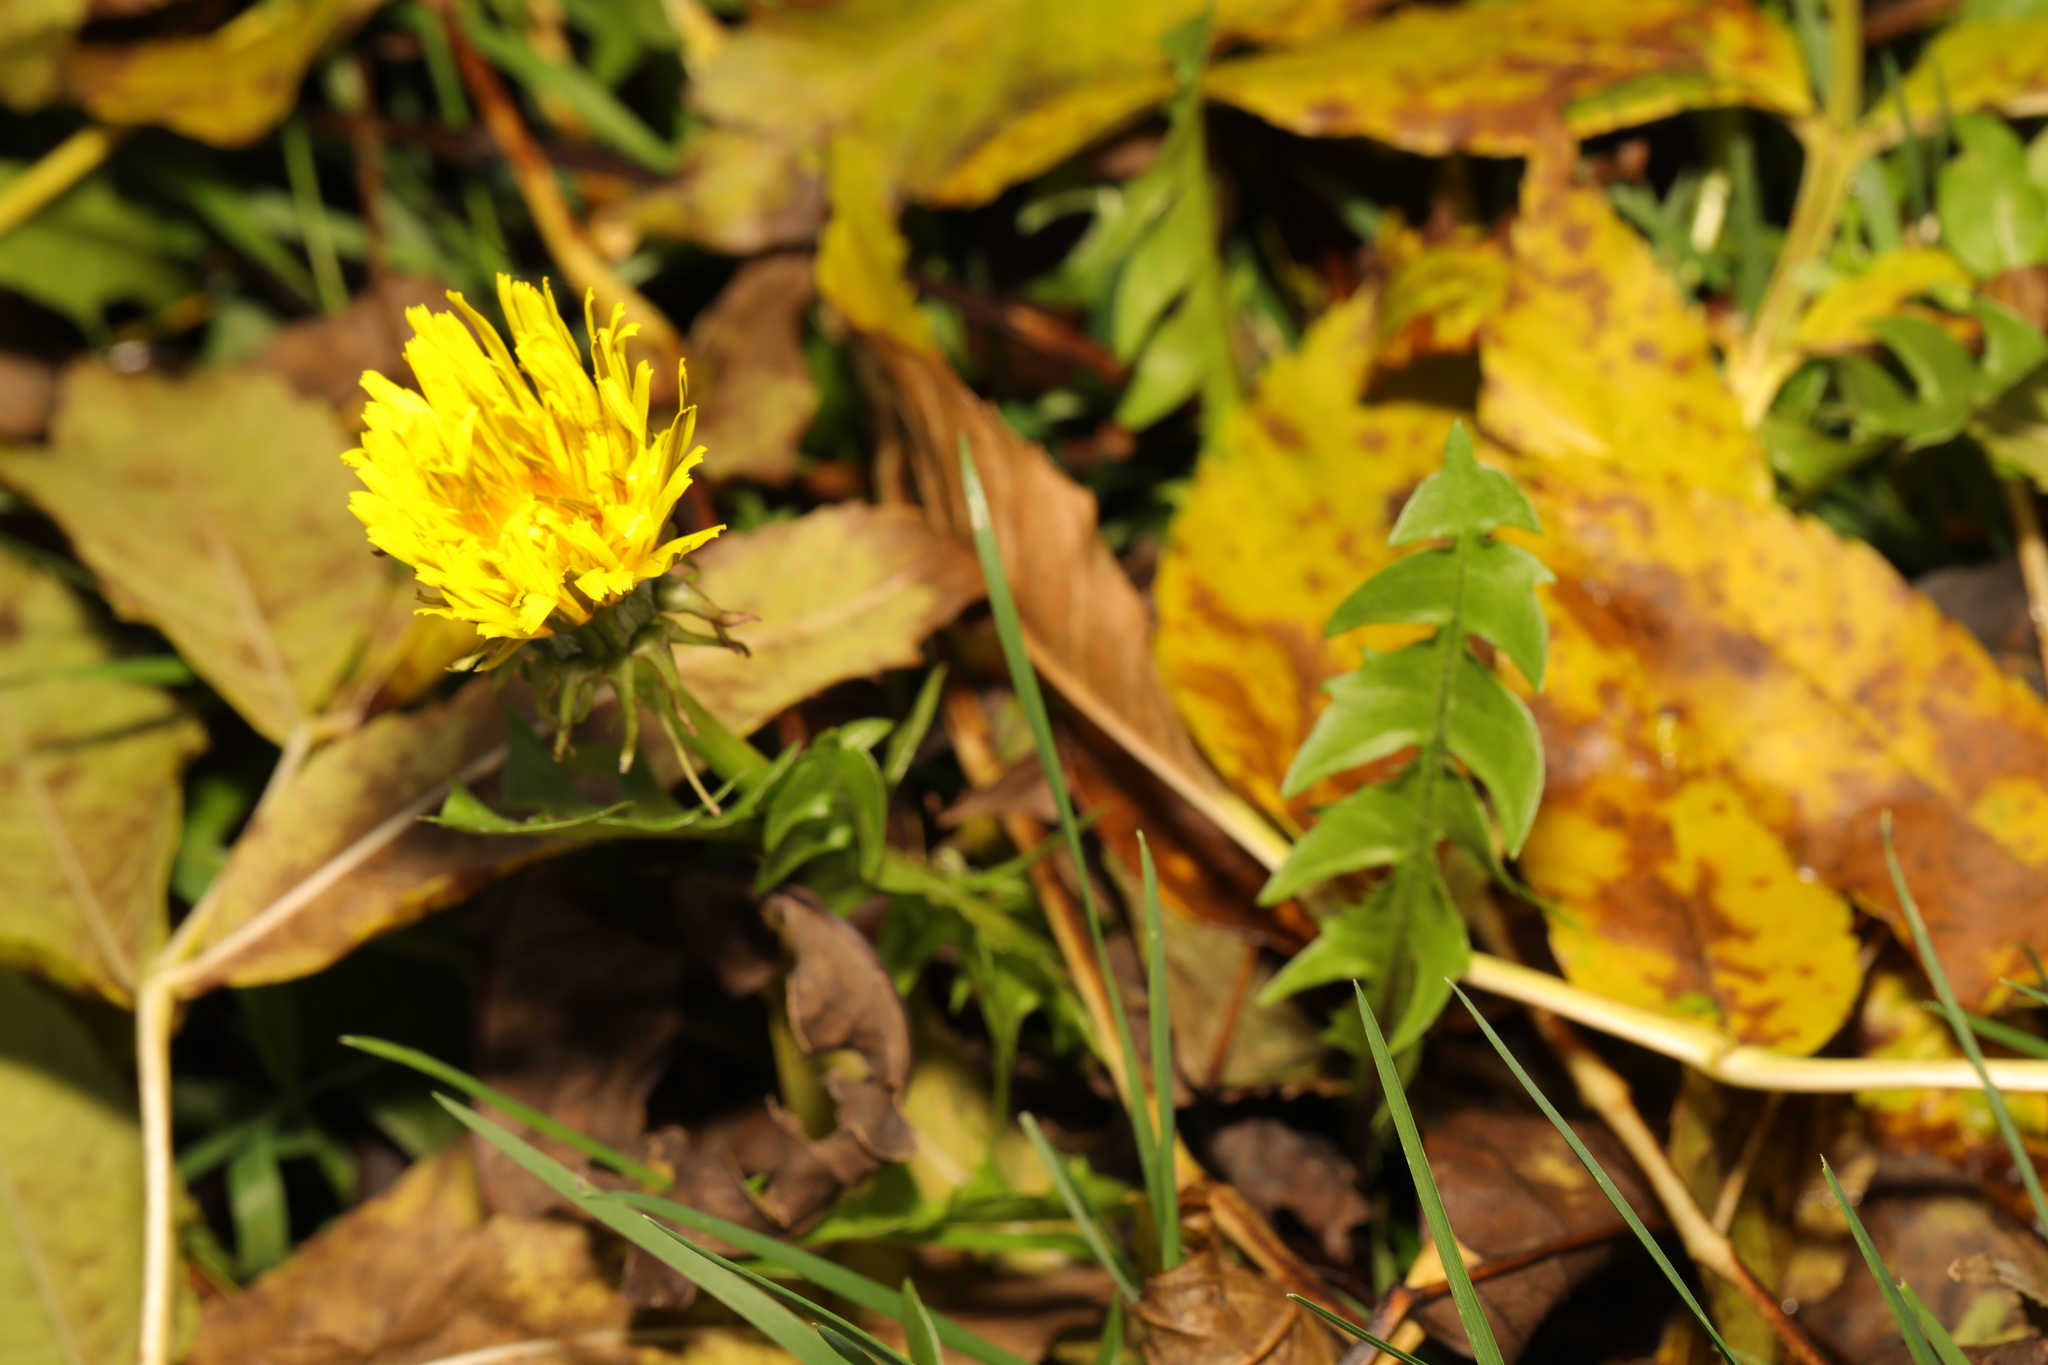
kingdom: Plantae
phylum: Tracheophyta
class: Magnoliopsida
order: Asterales
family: Asteraceae
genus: Taraxacum
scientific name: Taraxacum officinale
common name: Common dandelion
